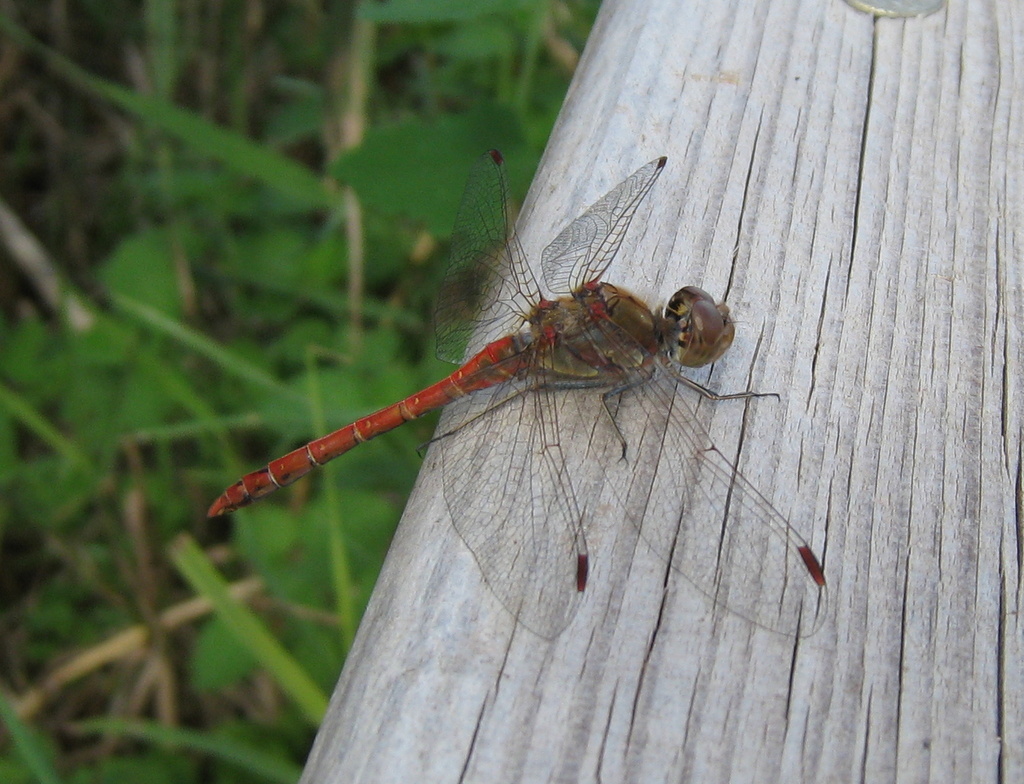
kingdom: Animalia
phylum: Arthropoda
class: Insecta
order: Odonata
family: Libellulidae
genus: Sympetrum
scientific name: Sympetrum striolatum
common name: Common darter
